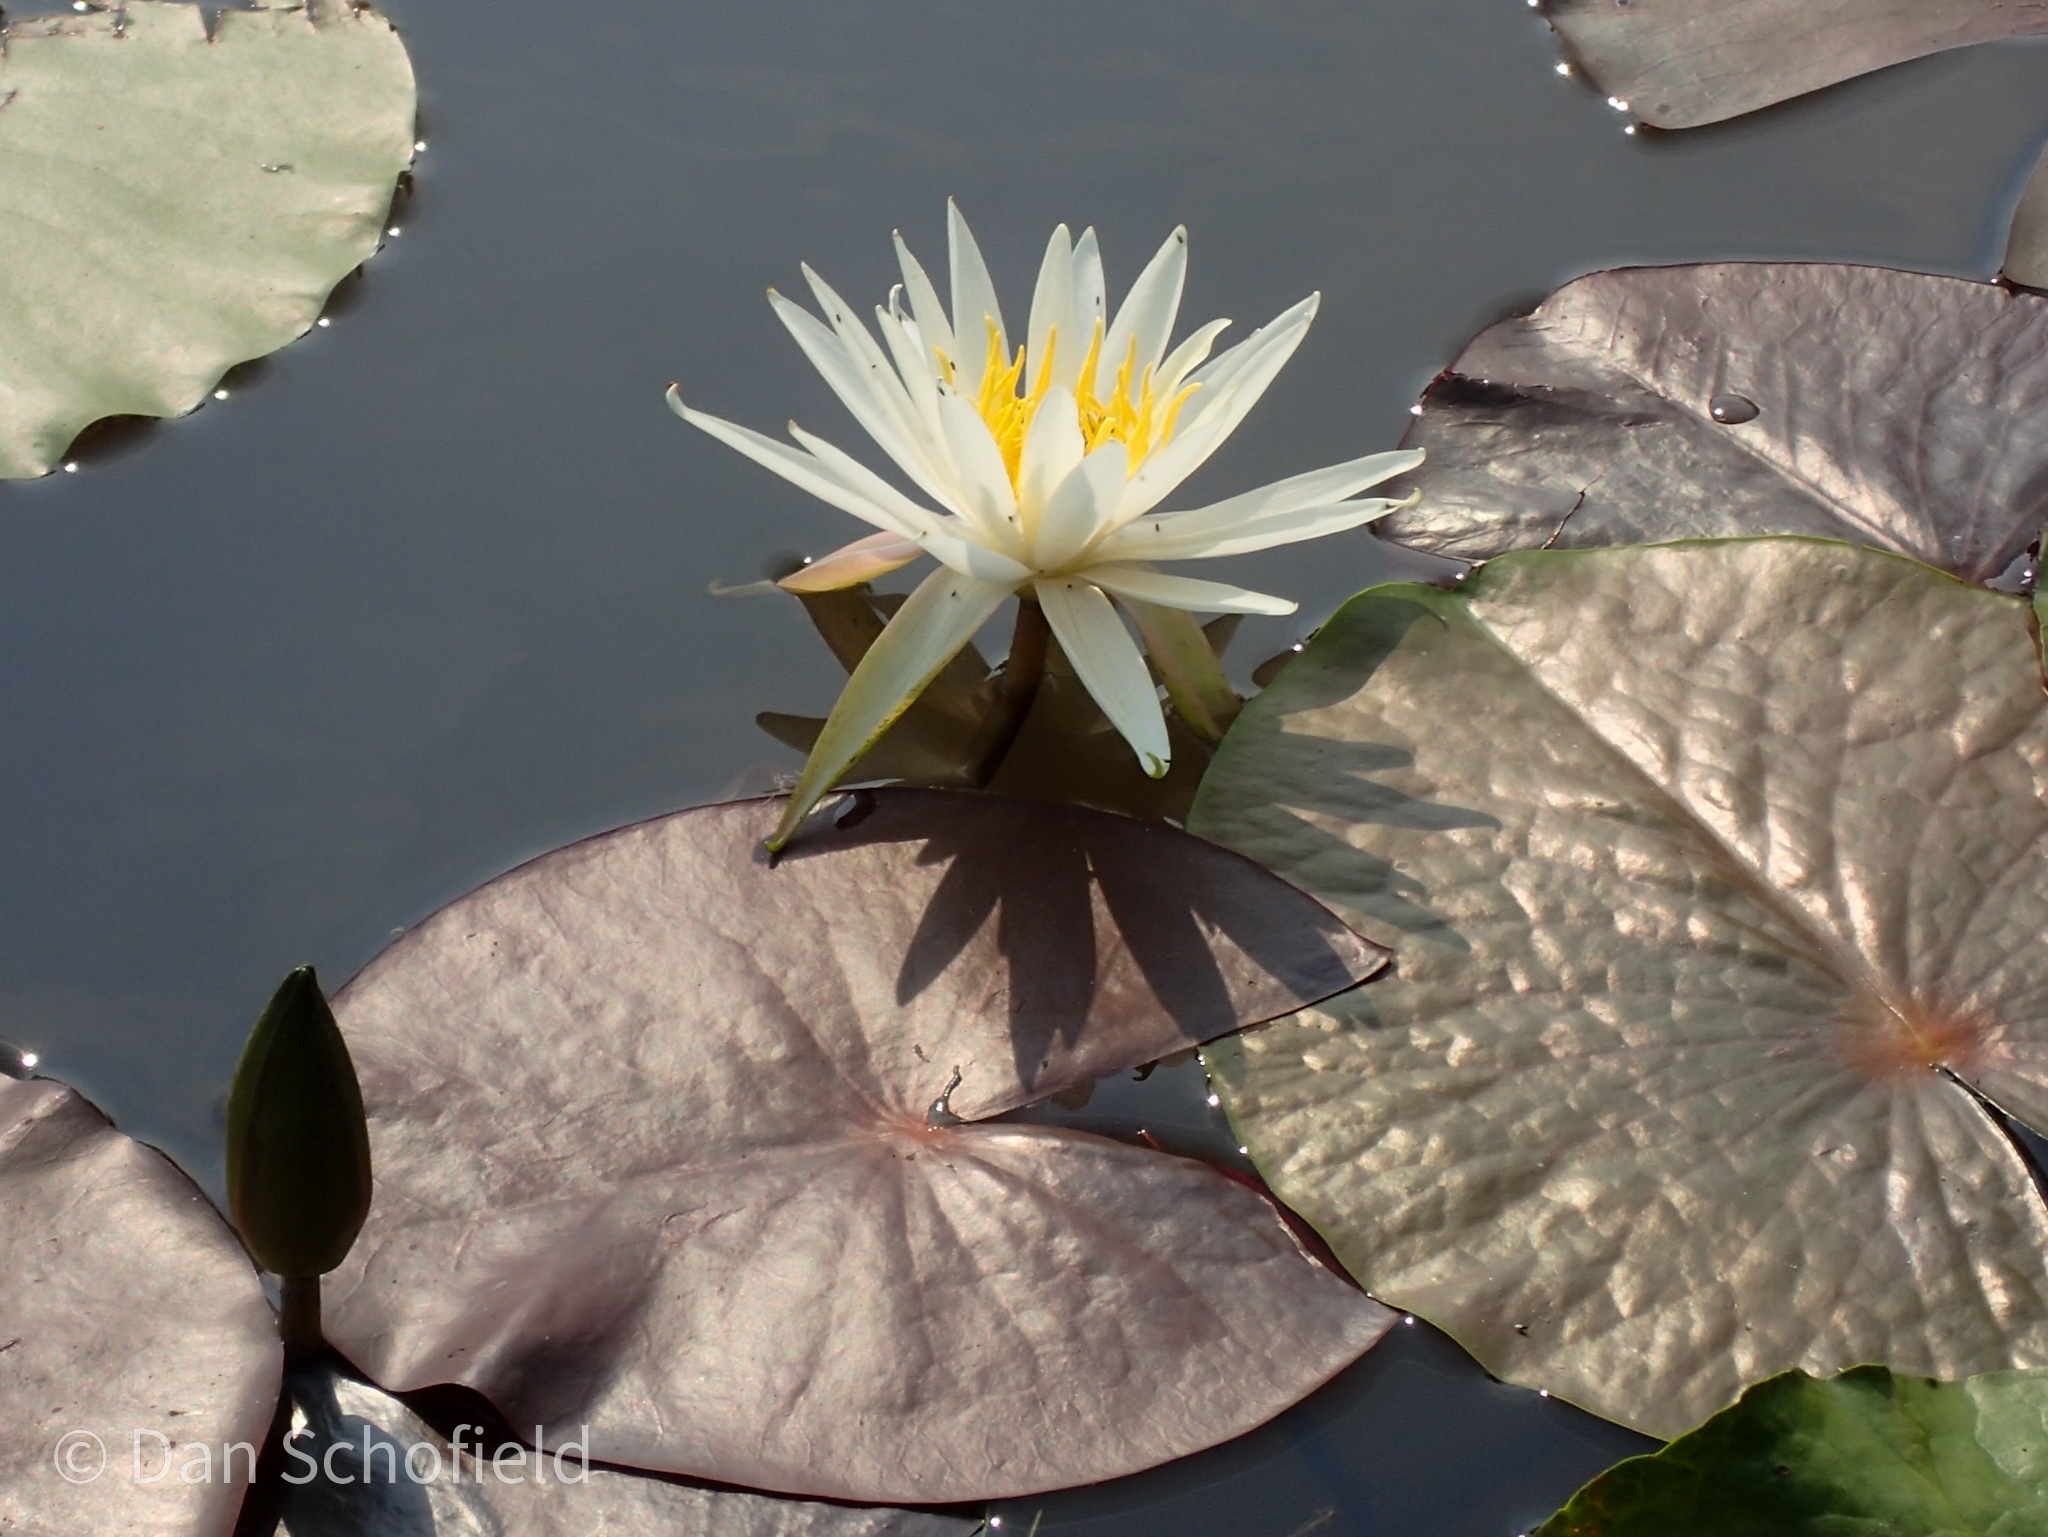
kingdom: Plantae
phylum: Tracheophyta
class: Magnoliopsida
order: Nymphaeales
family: Nymphaeaceae
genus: Nymphaea
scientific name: Nymphaea odorata
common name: Fragrant water-lily
